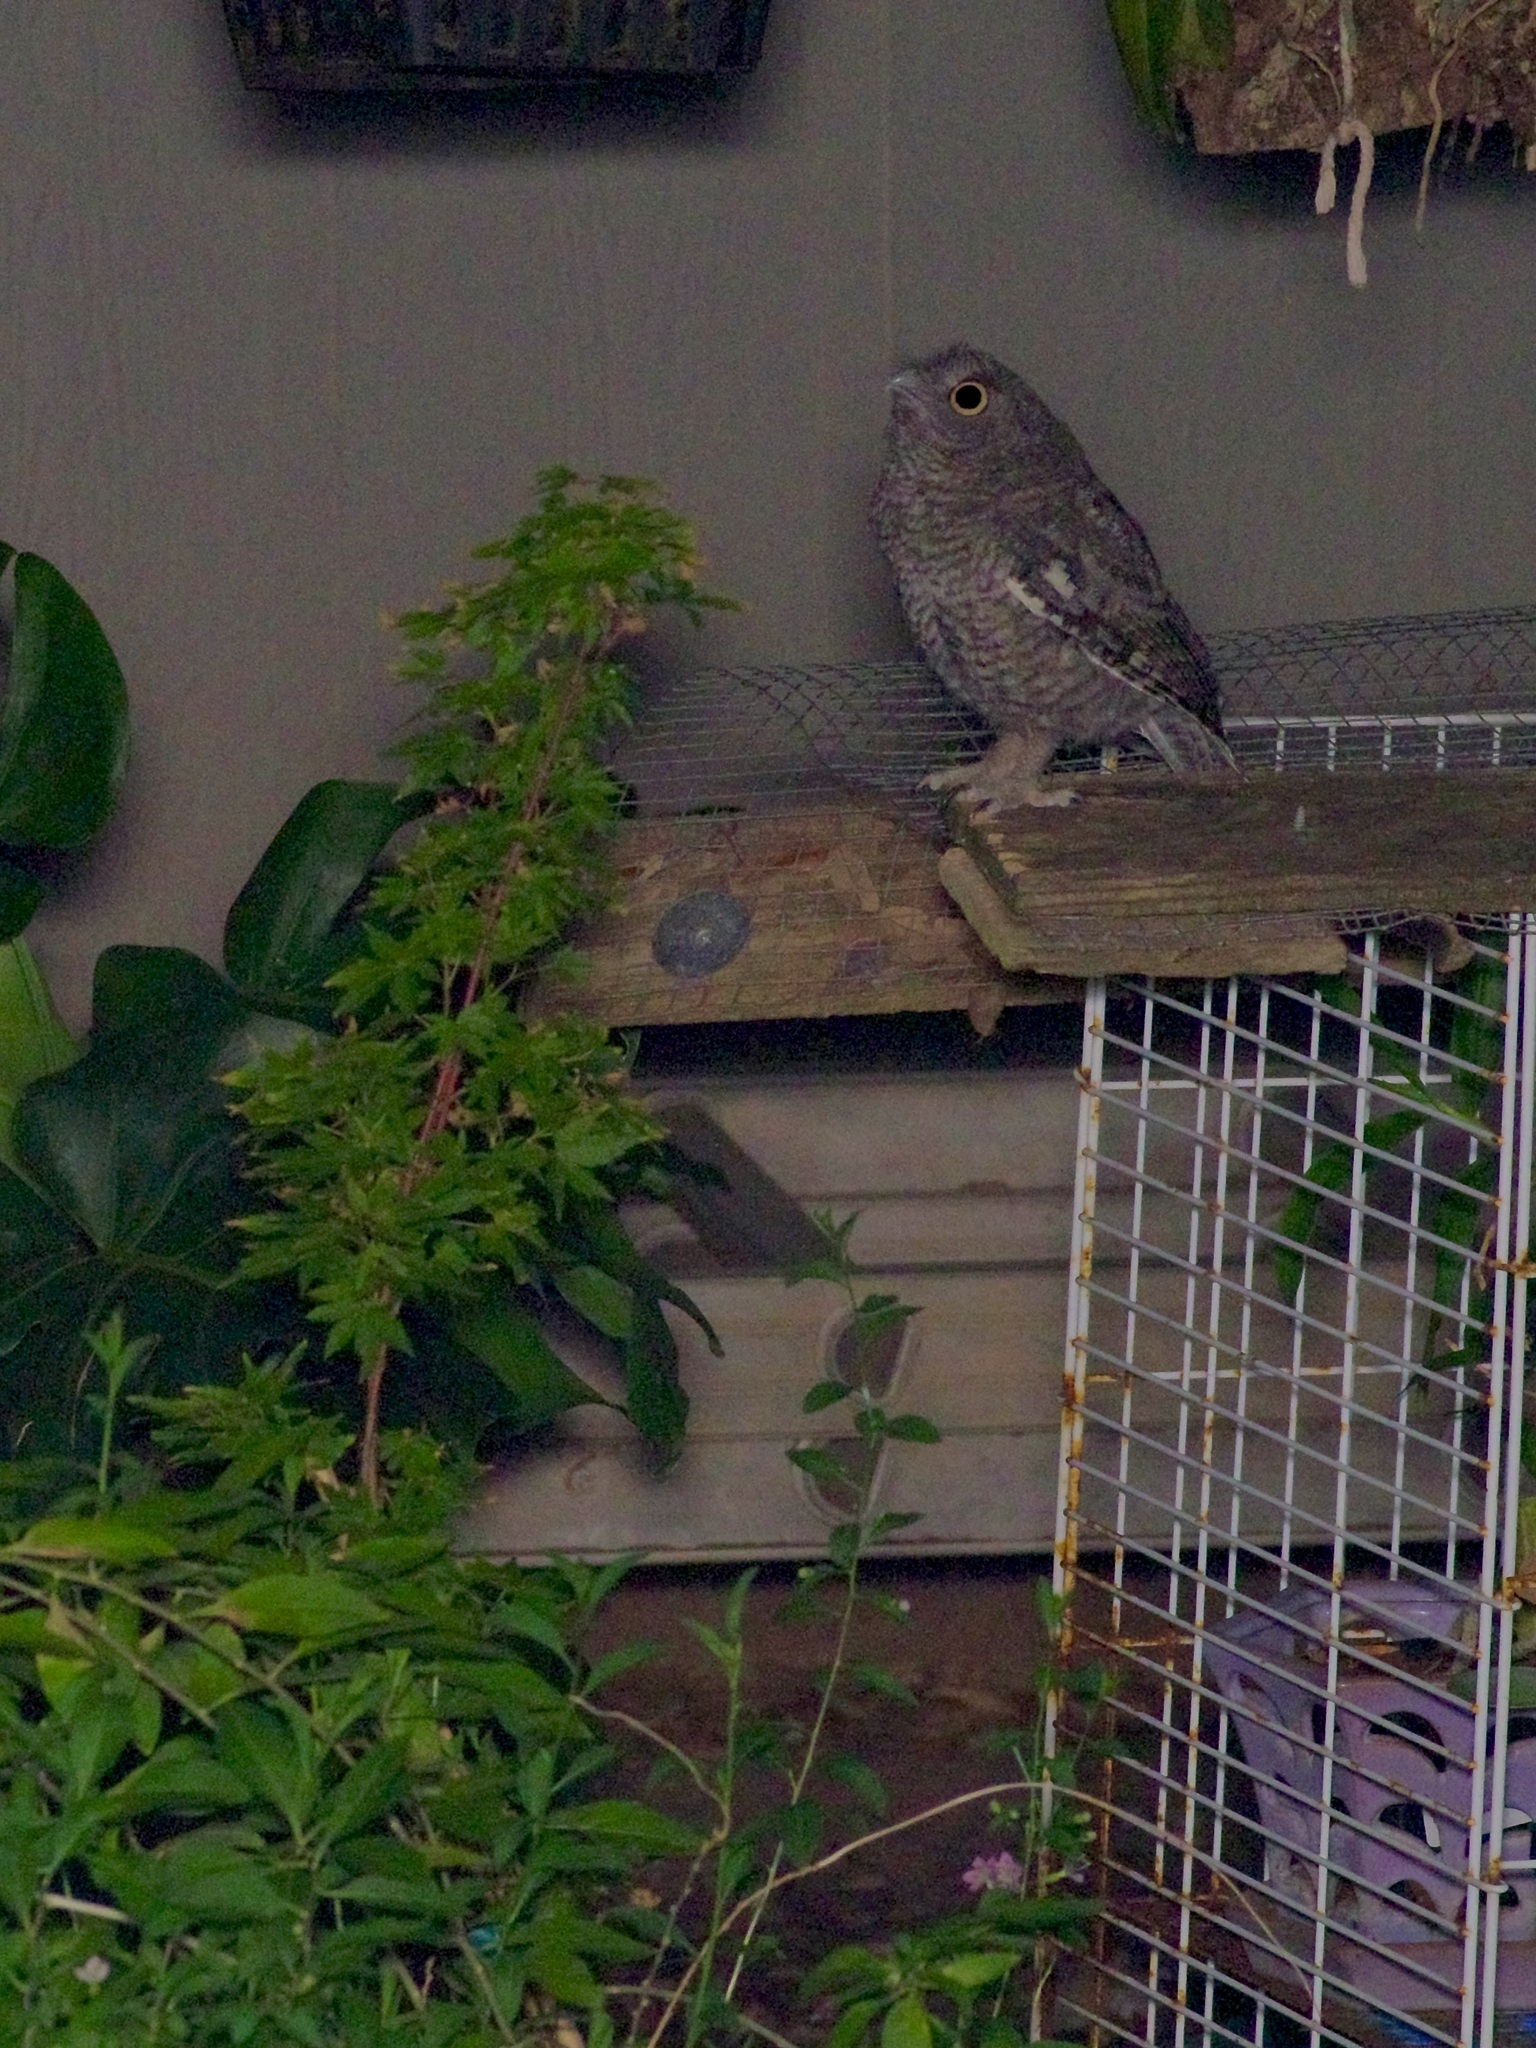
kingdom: Animalia
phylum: Chordata
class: Aves
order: Strigiformes
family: Strigidae
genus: Megascops
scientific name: Megascops asio
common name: Eastern screech-owl
